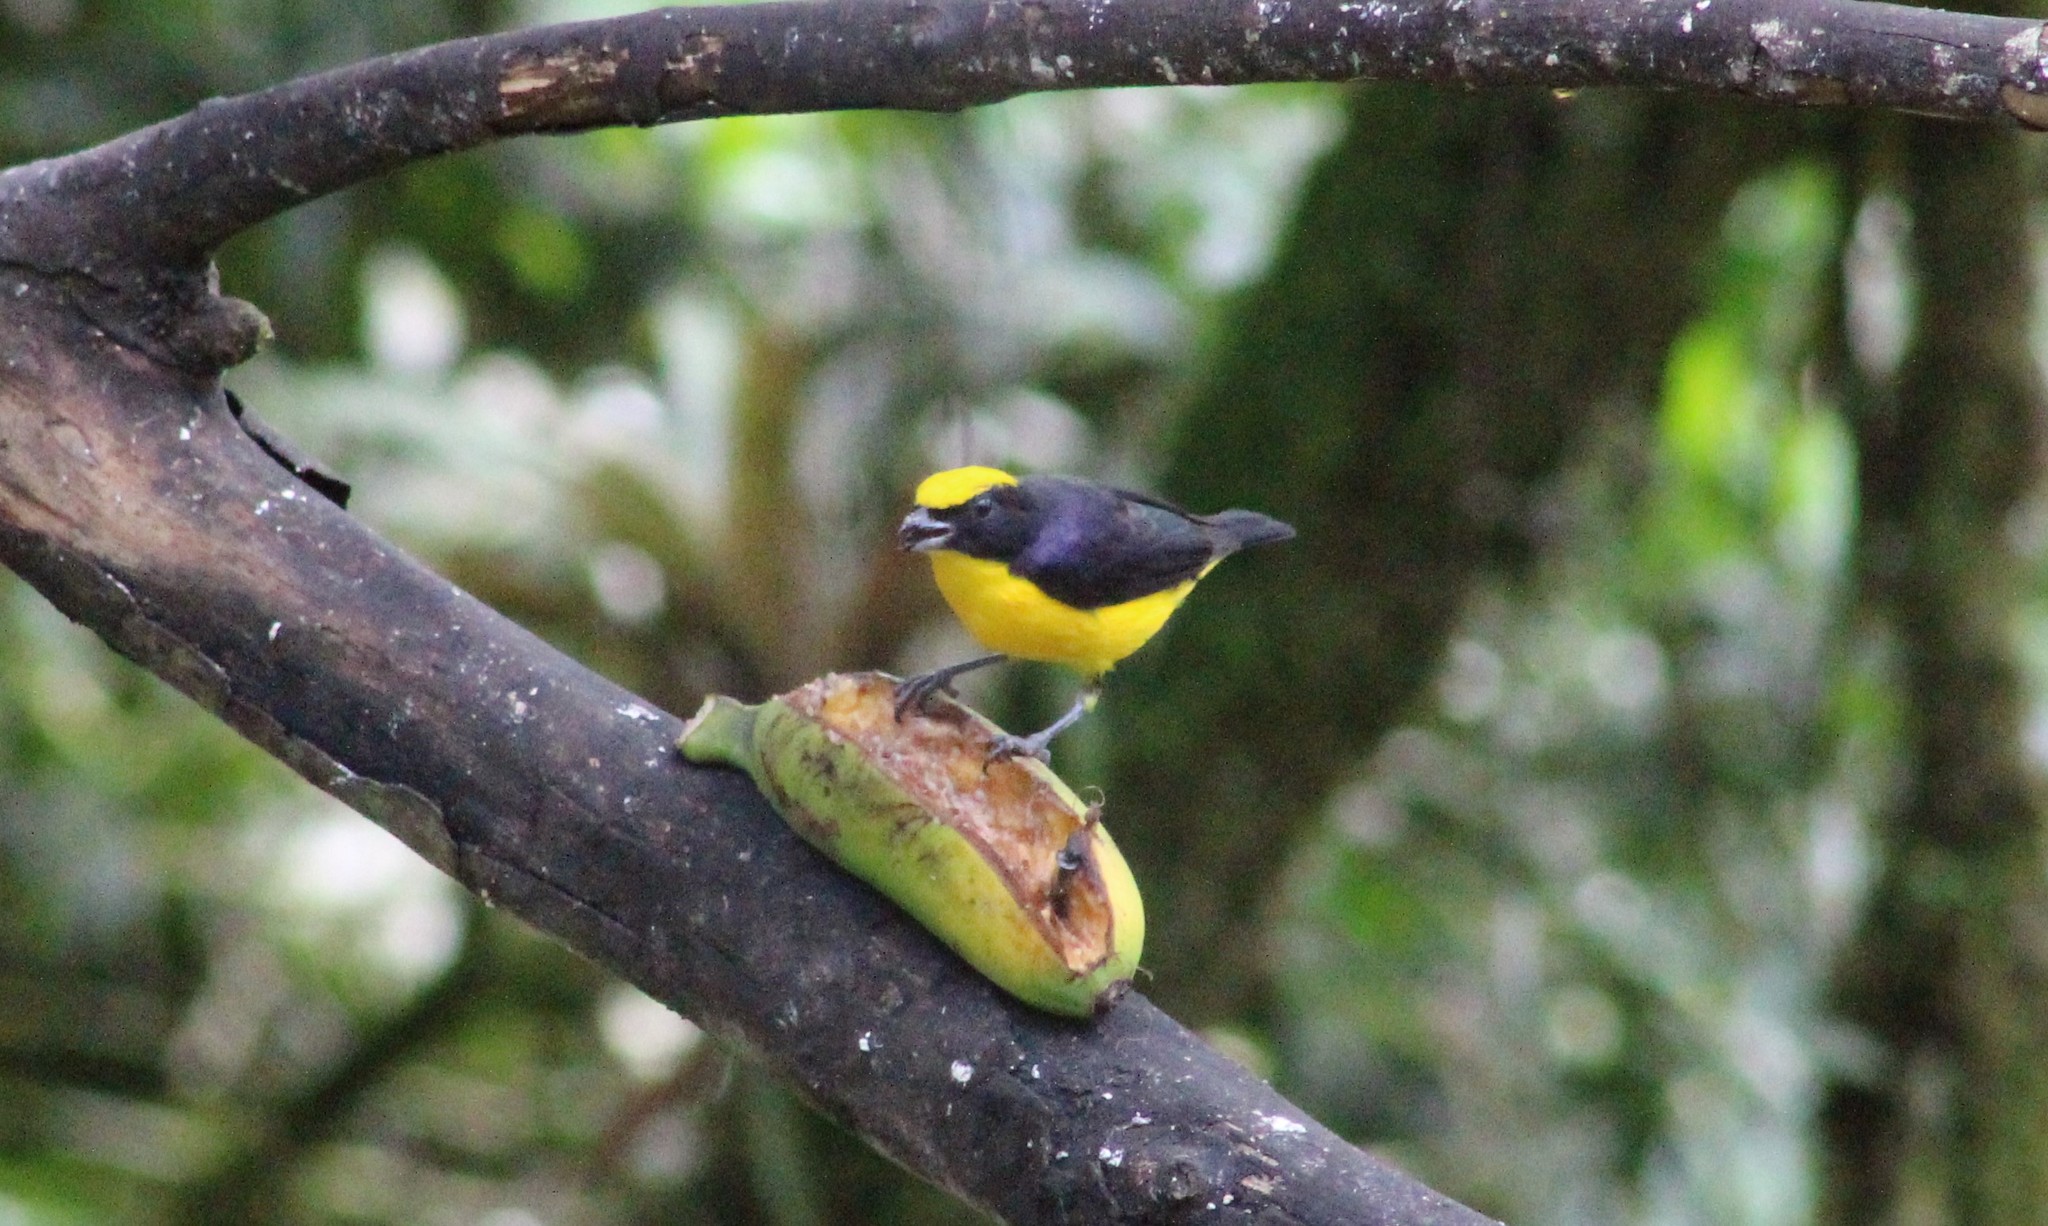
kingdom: Animalia
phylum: Chordata
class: Aves
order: Passeriformes
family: Fringillidae
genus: Euphonia
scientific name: Euphonia laniirostris
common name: Thick-billed euphonia
